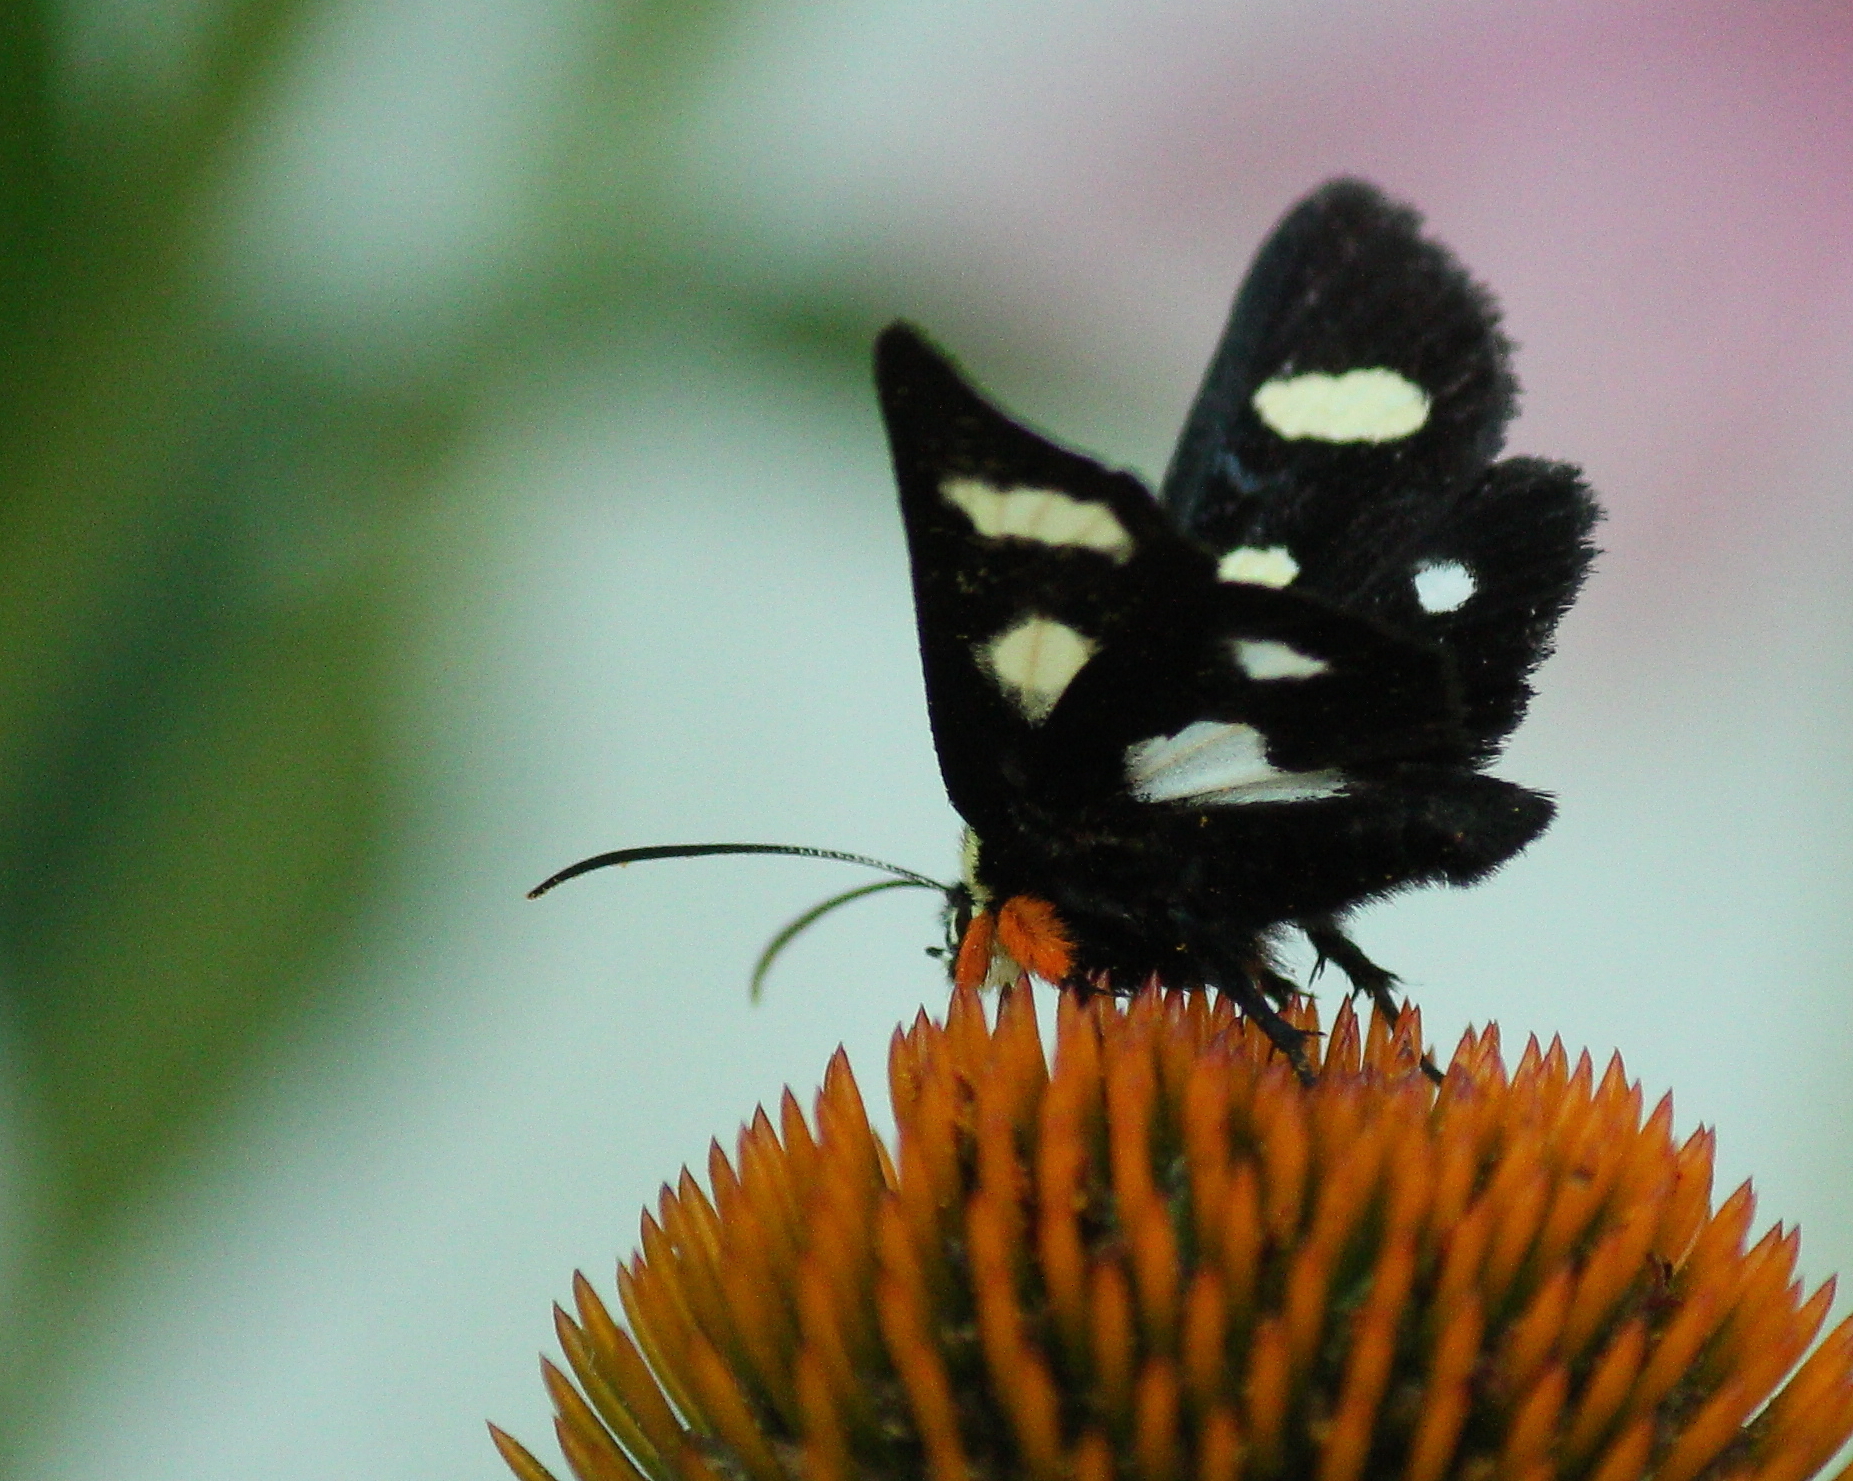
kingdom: Animalia
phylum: Arthropoda
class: Insecta
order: Lepidoptera
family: Noctuidae
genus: Alypia
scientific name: Alypia octomaculata
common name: Eight-spotted forester
